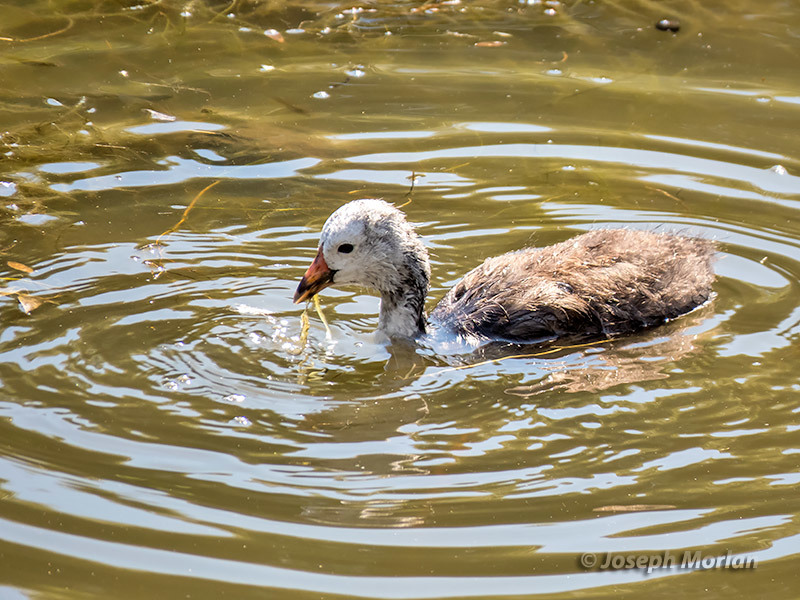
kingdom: Animalia
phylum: Chordata
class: Aves
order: Gruiformes
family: Rallidae
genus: Fulica
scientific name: Fulica americana
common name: American coot
